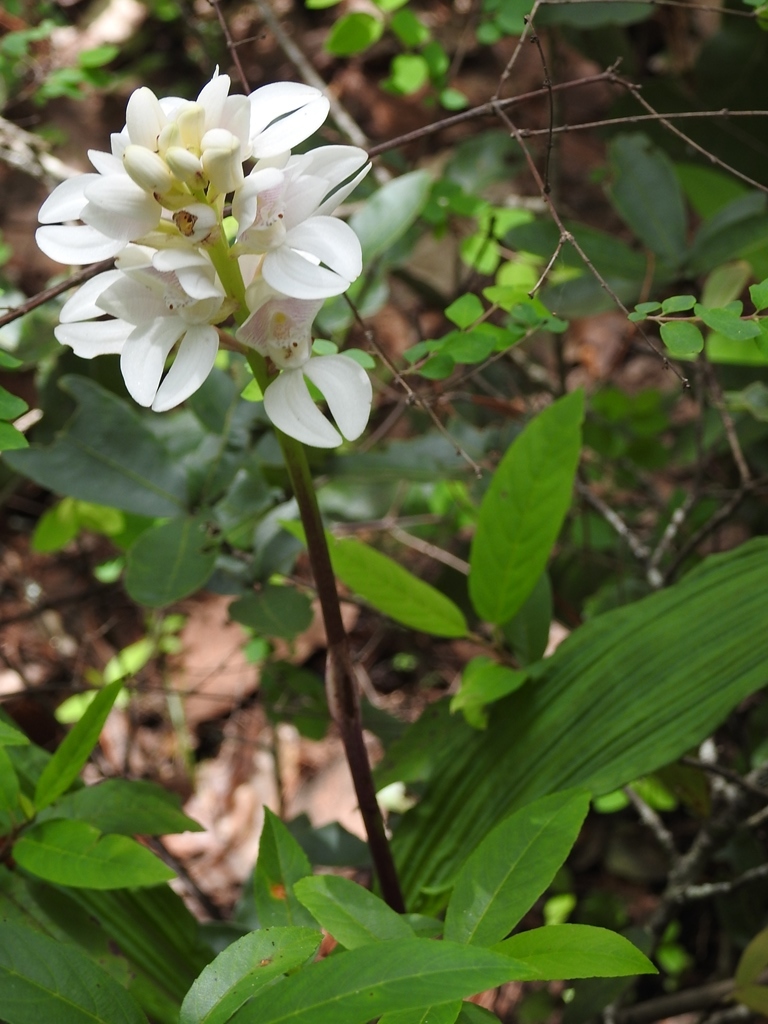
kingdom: Plantae
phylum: Tracheophyta
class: Liliopsida
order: Asparagales
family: Orchidaceae
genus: Govenia
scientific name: Govenia liliacea
